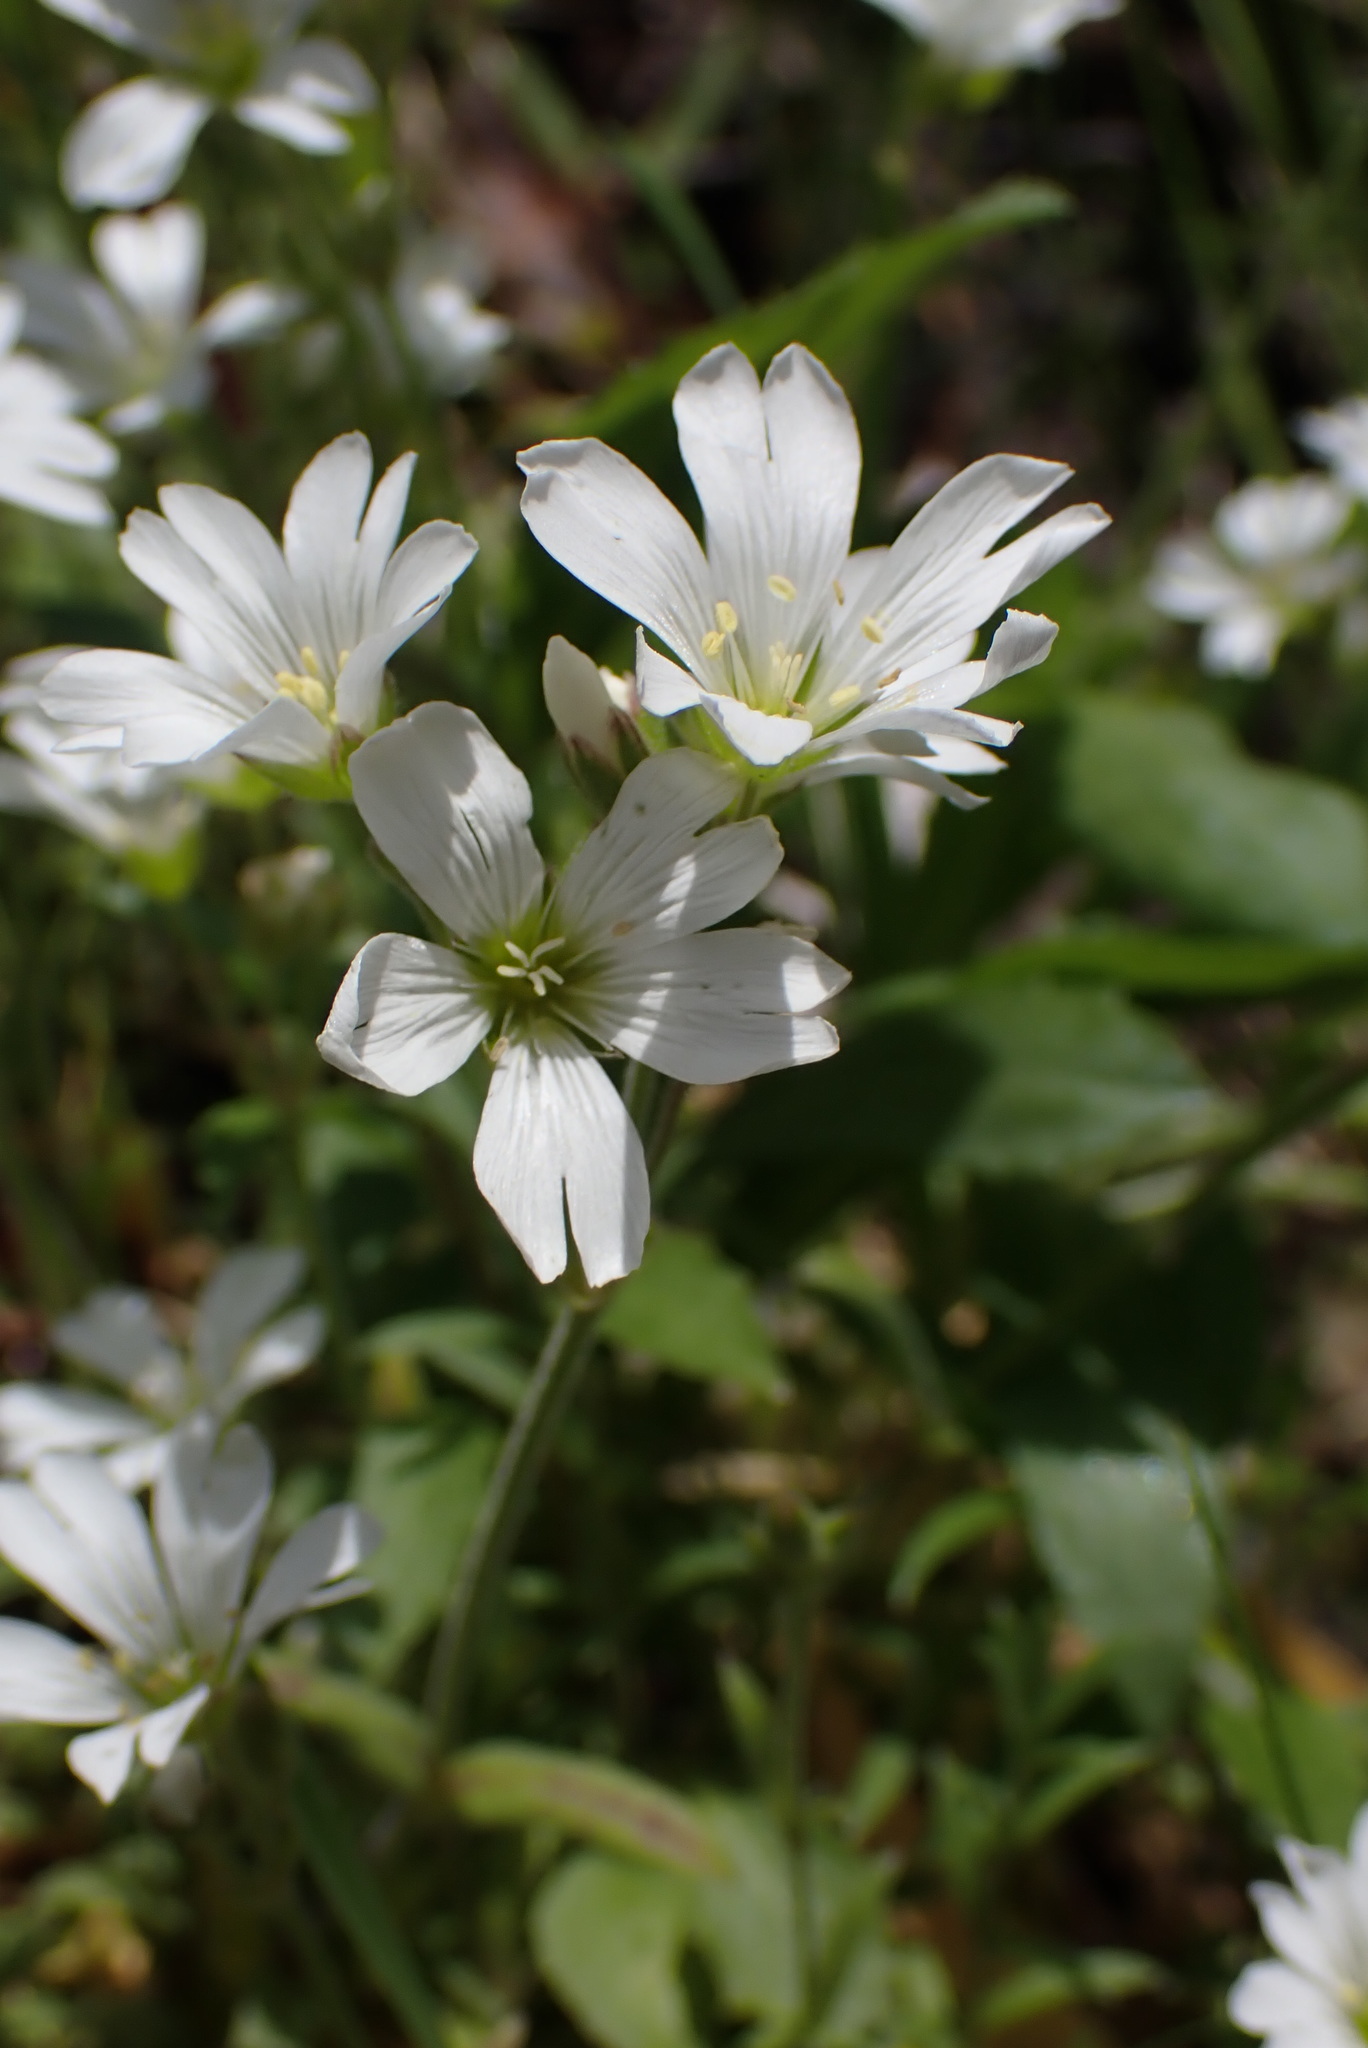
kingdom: Plantae
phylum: Tracheophyta
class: Magnoliopsida
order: Caryophyllales
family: Caryophyllaceae
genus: Cerastium
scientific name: Cerastium arvense
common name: Field mouse-ear
